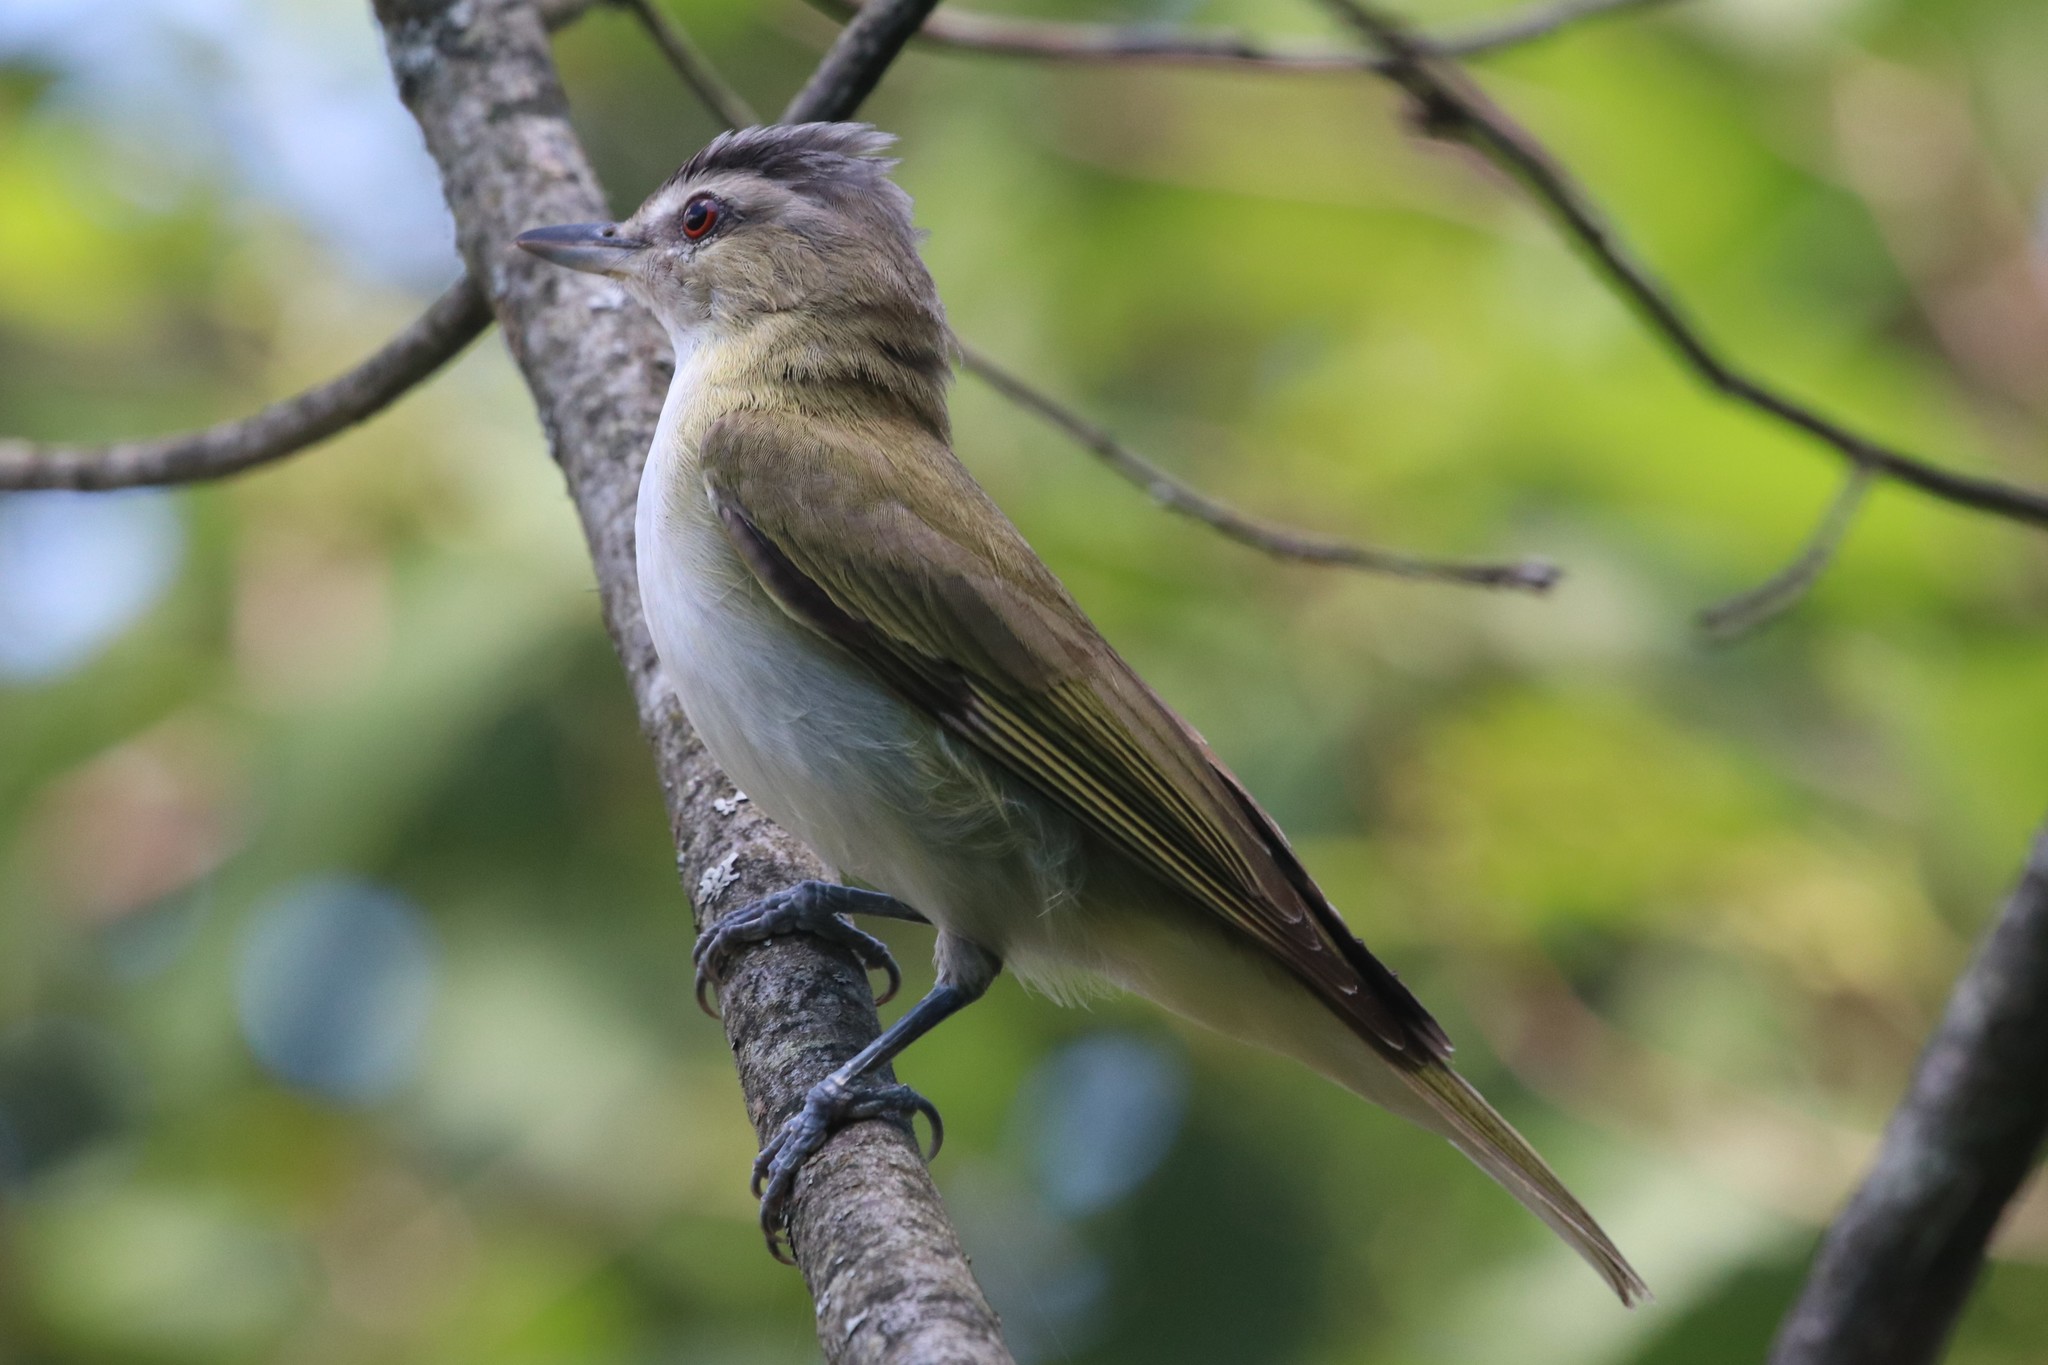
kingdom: Animalia
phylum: Chordata
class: Aves
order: Passeriformes
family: Vireonidae
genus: Vireo
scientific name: Vireo olivaceus
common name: Red-eyed vireo
